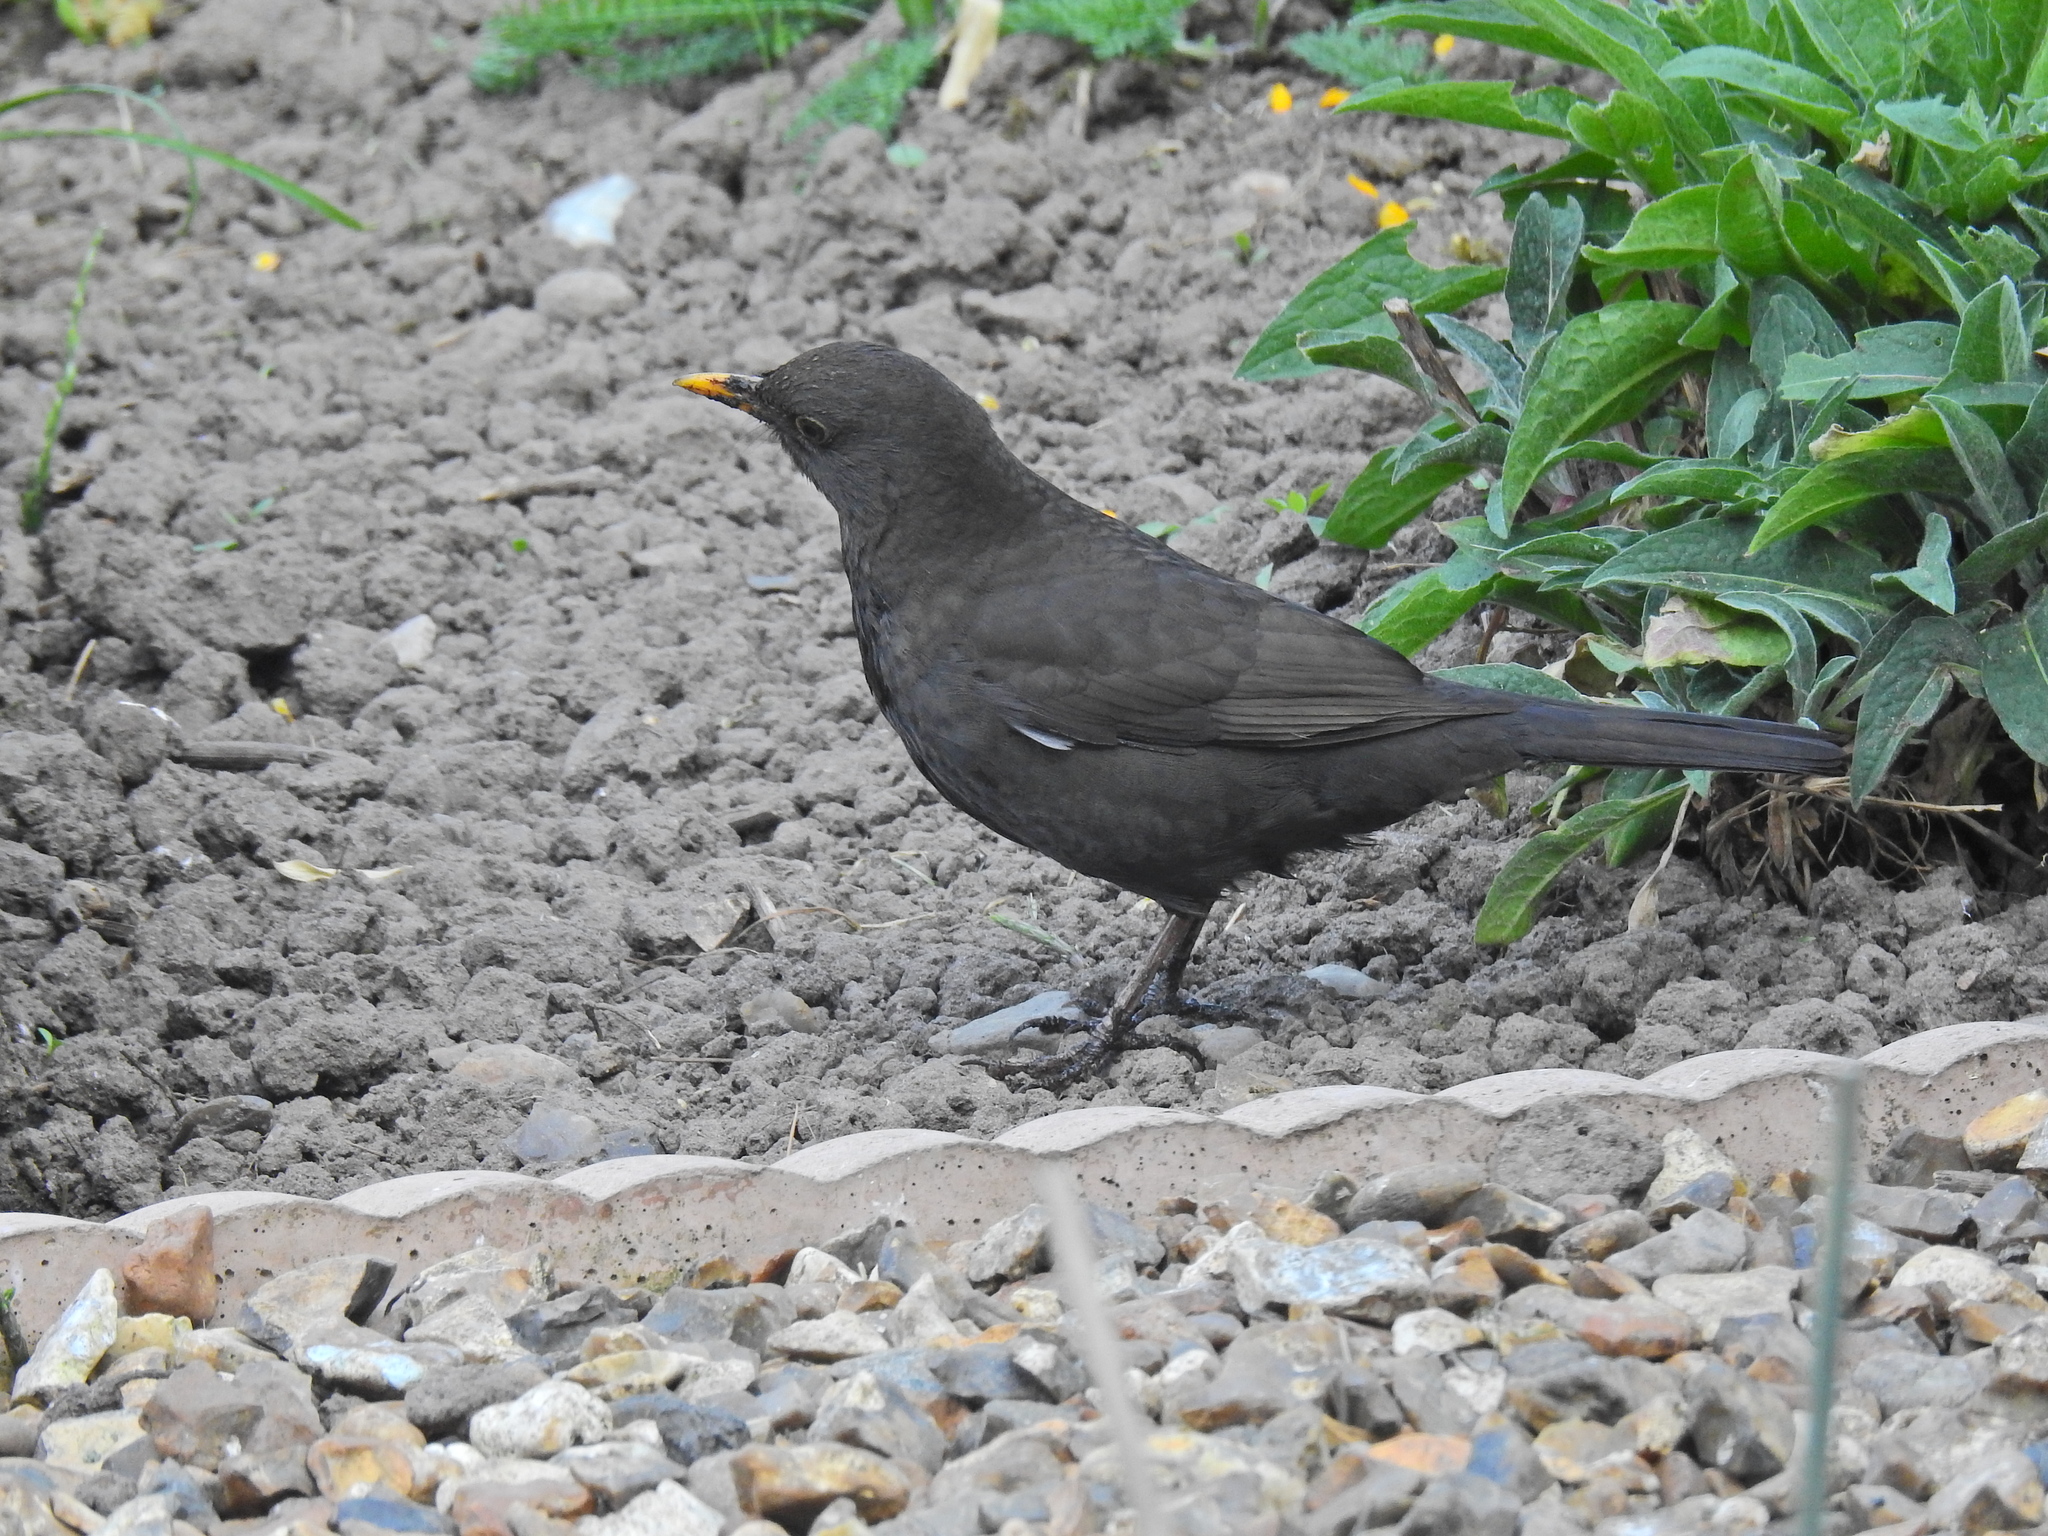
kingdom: Animalia
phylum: Chordata
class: Aves
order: Passeriformes
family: Turdidae
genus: Turdus
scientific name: Turdus merula
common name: Common blackbird
